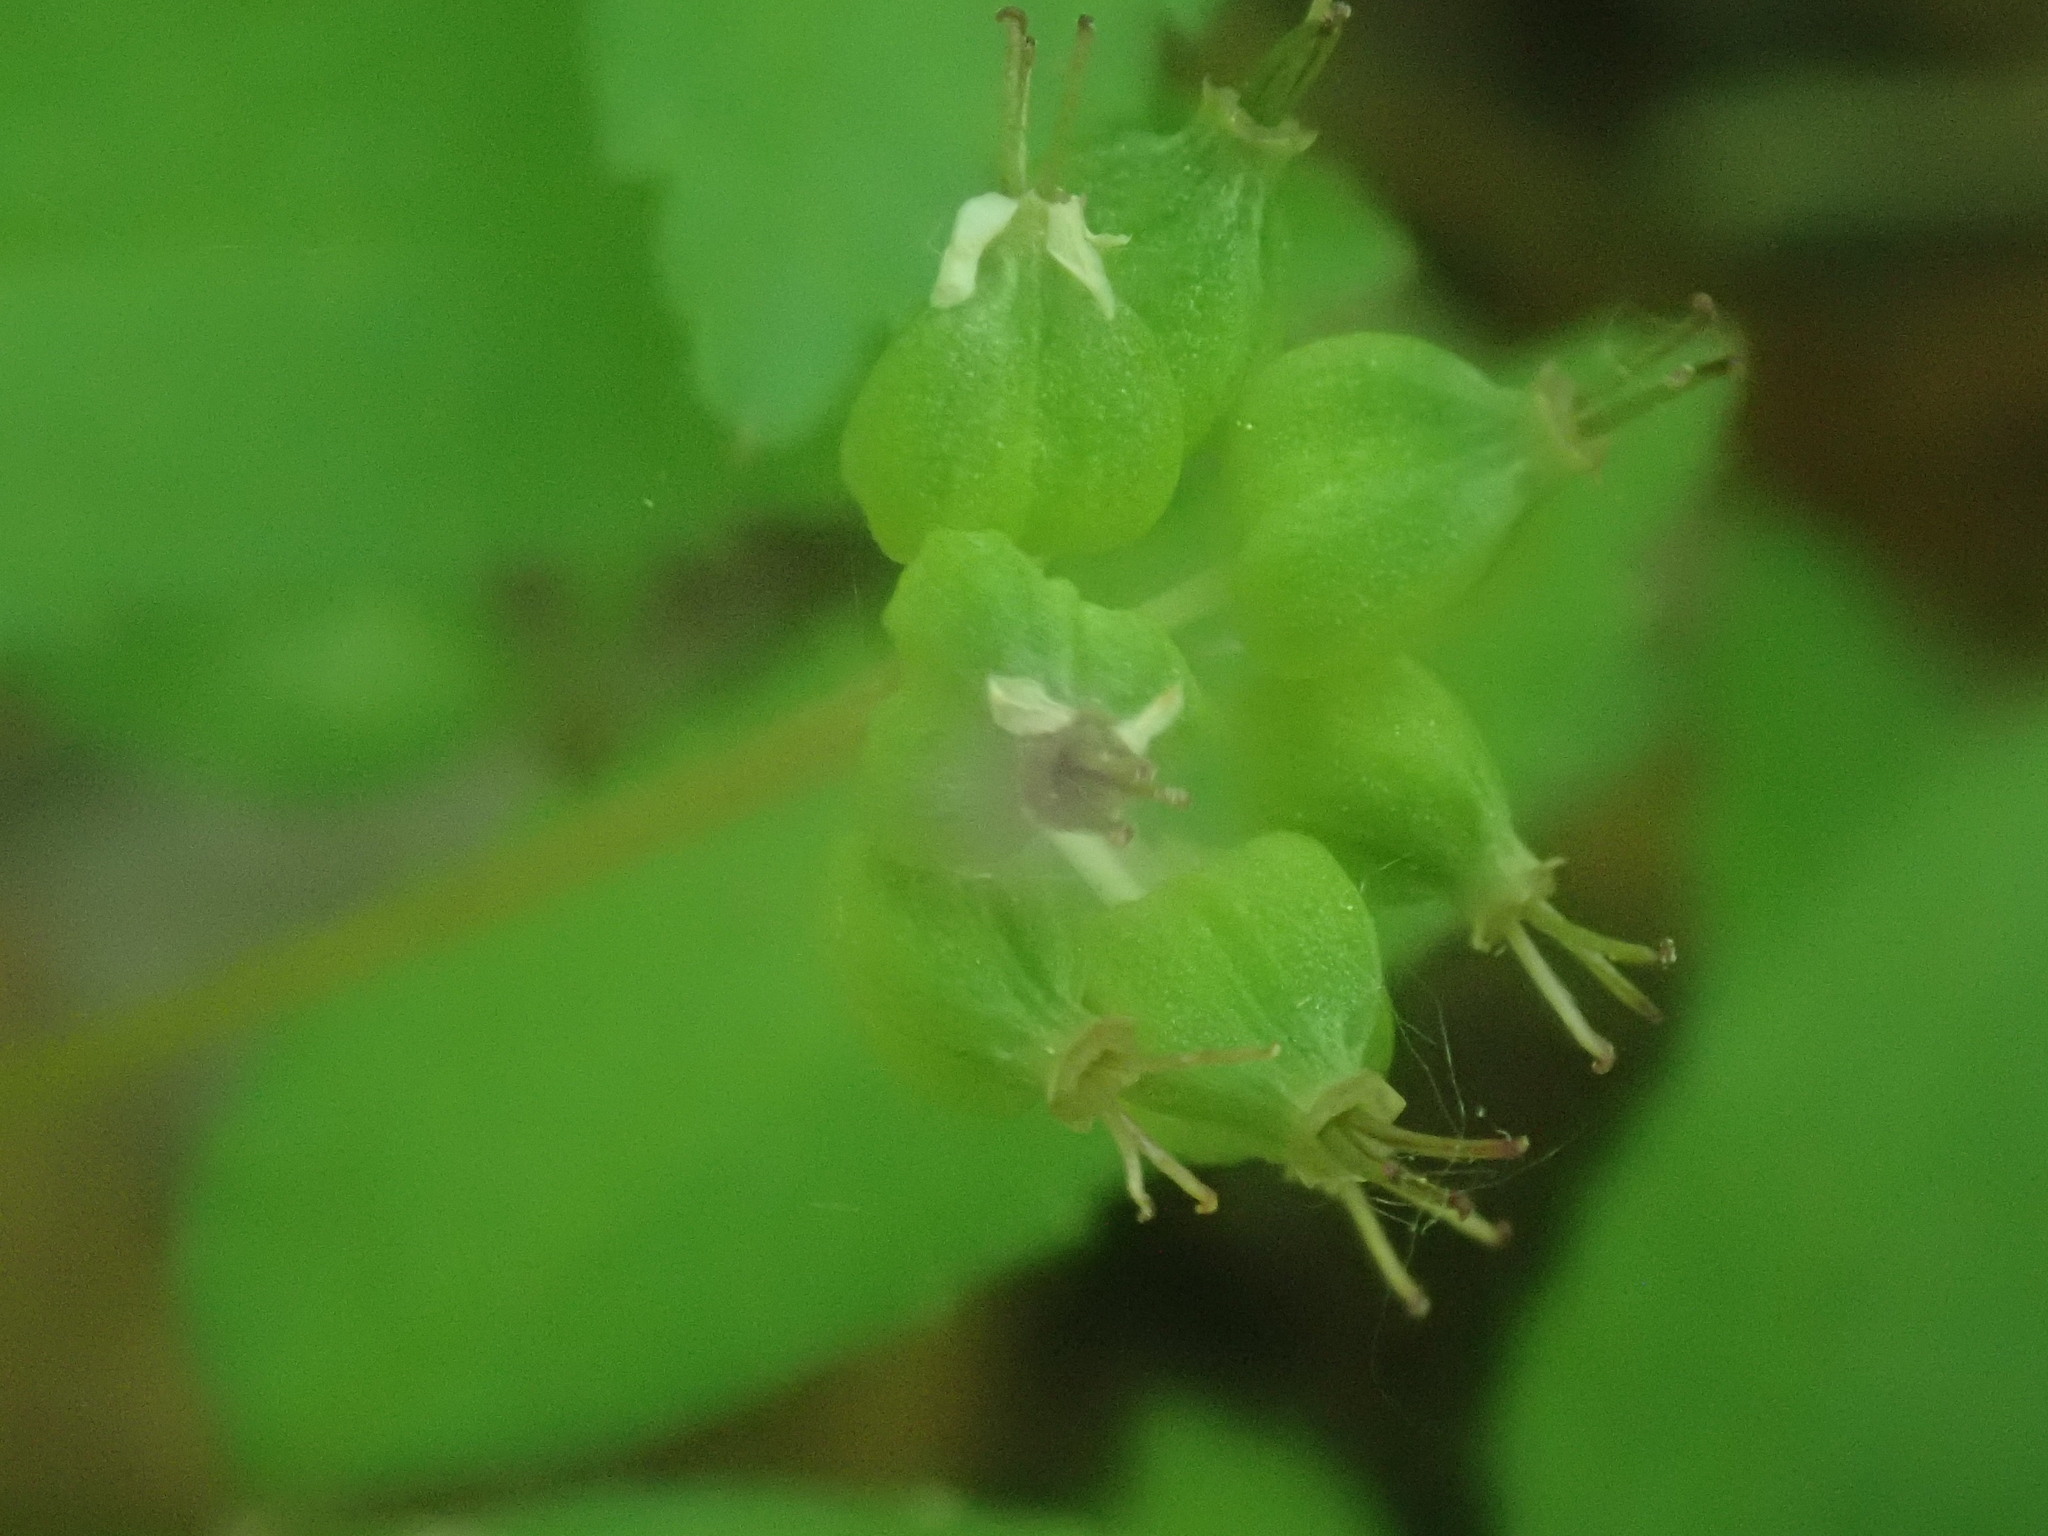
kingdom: Plantae
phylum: Tracheophyta
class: Magnoliopsida
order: Apiales
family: Araliaceae
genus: Panax
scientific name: Panax trifolius
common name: Dwarf ginseng
